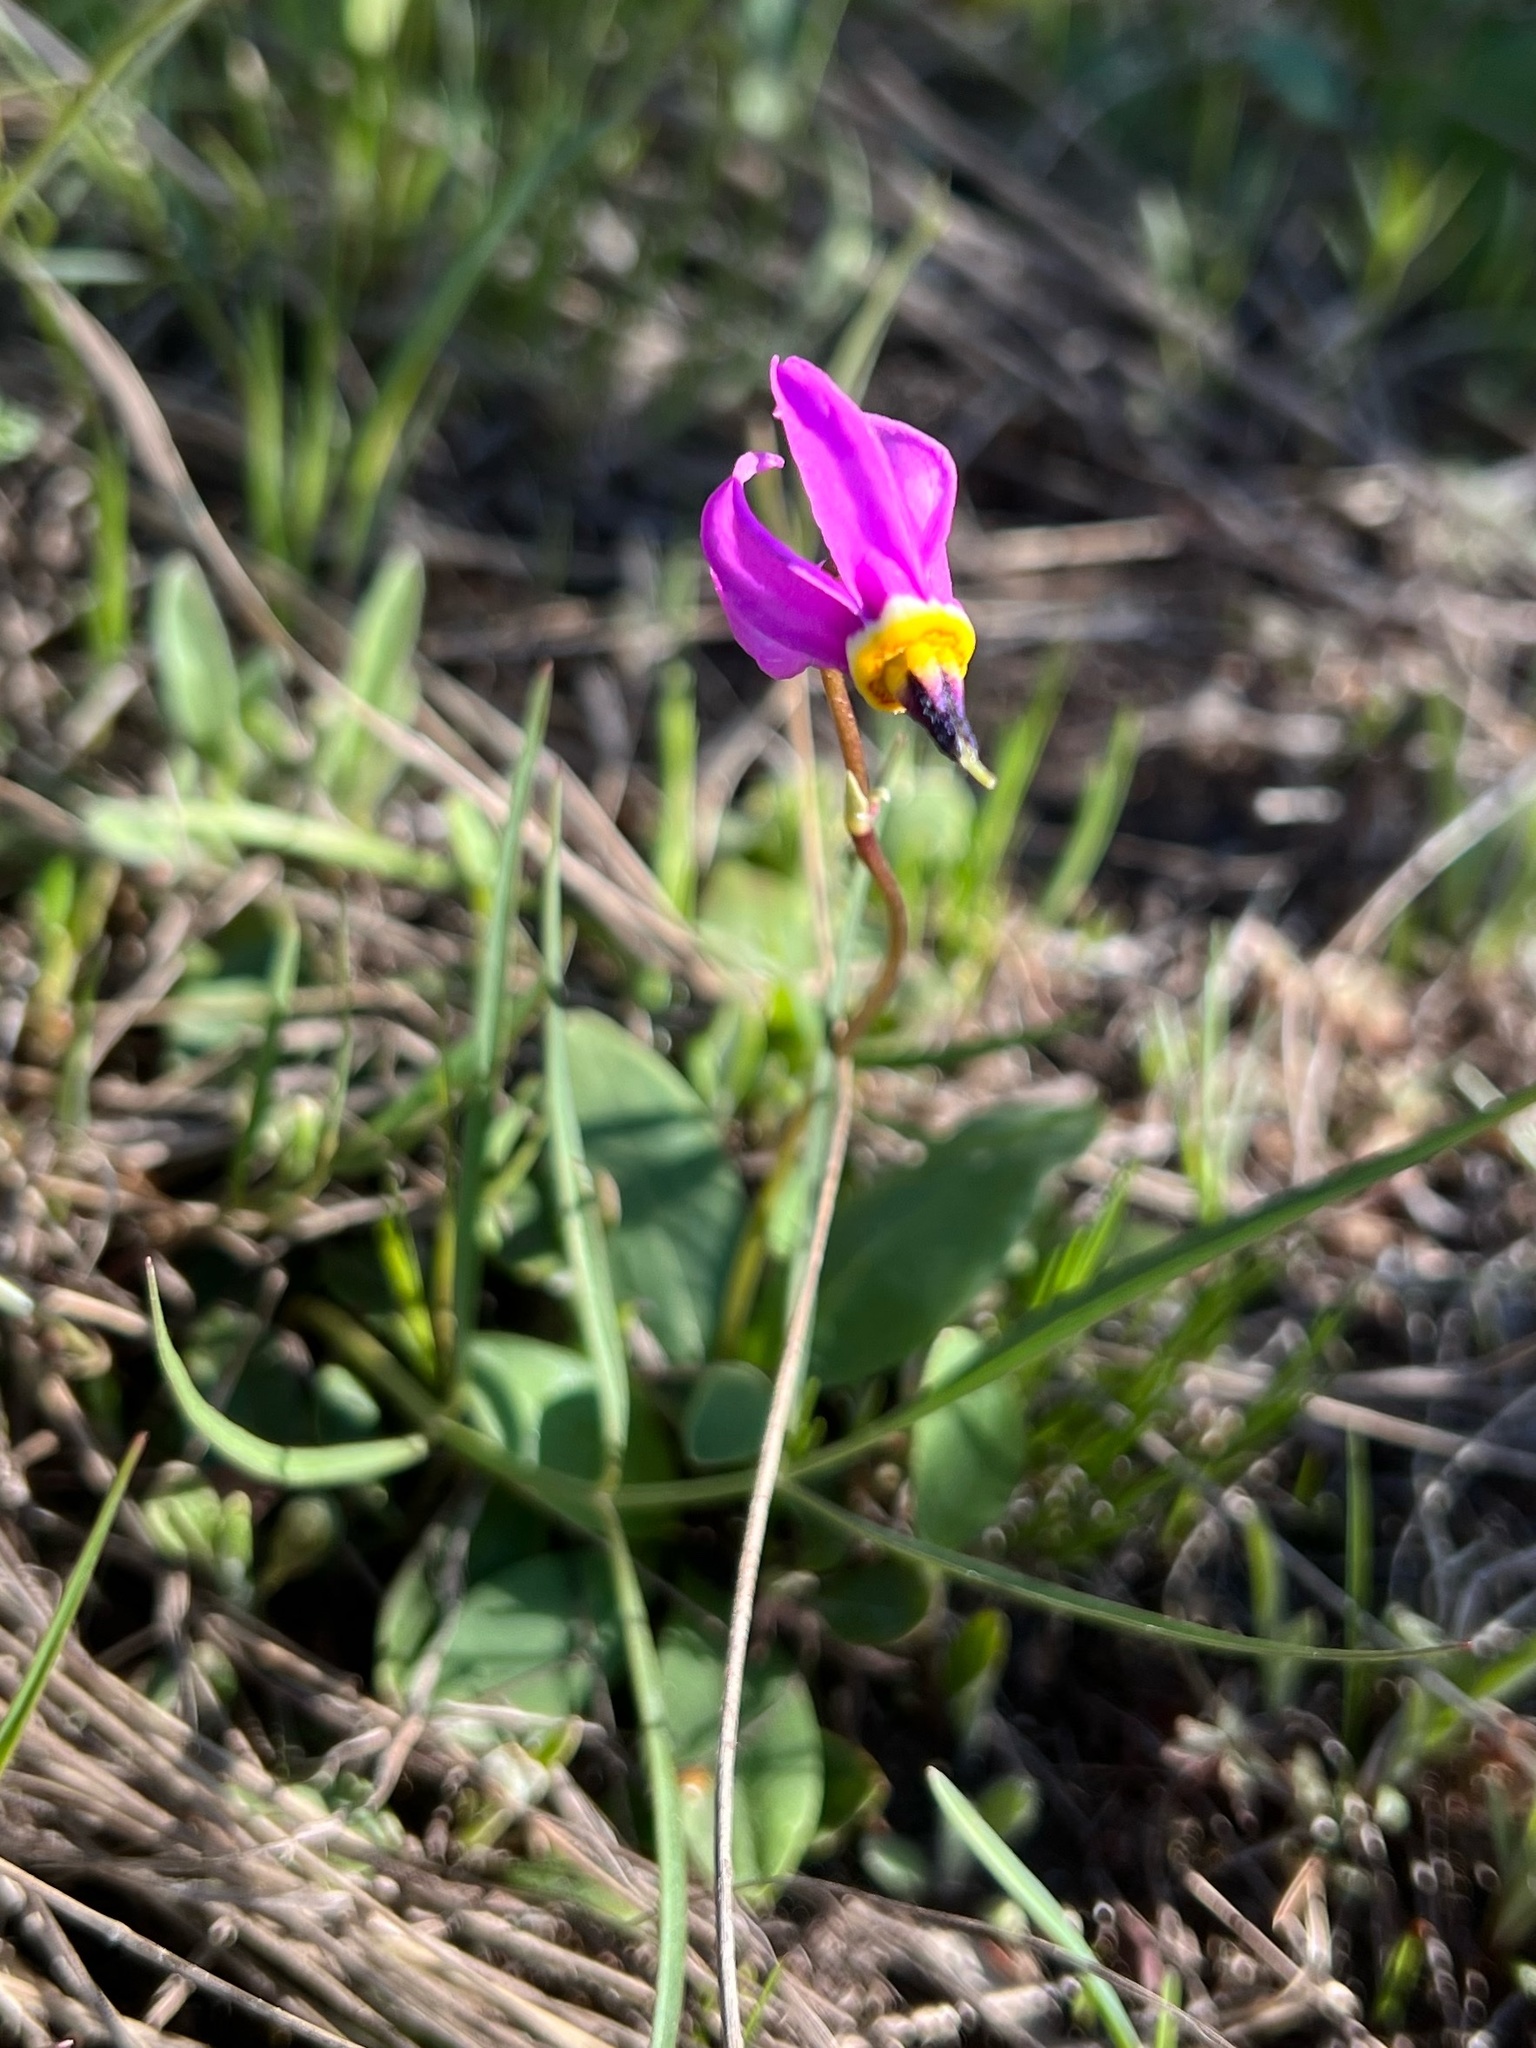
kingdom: Plantae
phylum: Tracheophyta
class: Magnoliopsida
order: Ericales
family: Primulaceae
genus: Dodecatheon
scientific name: Dodecatheon conjugens
